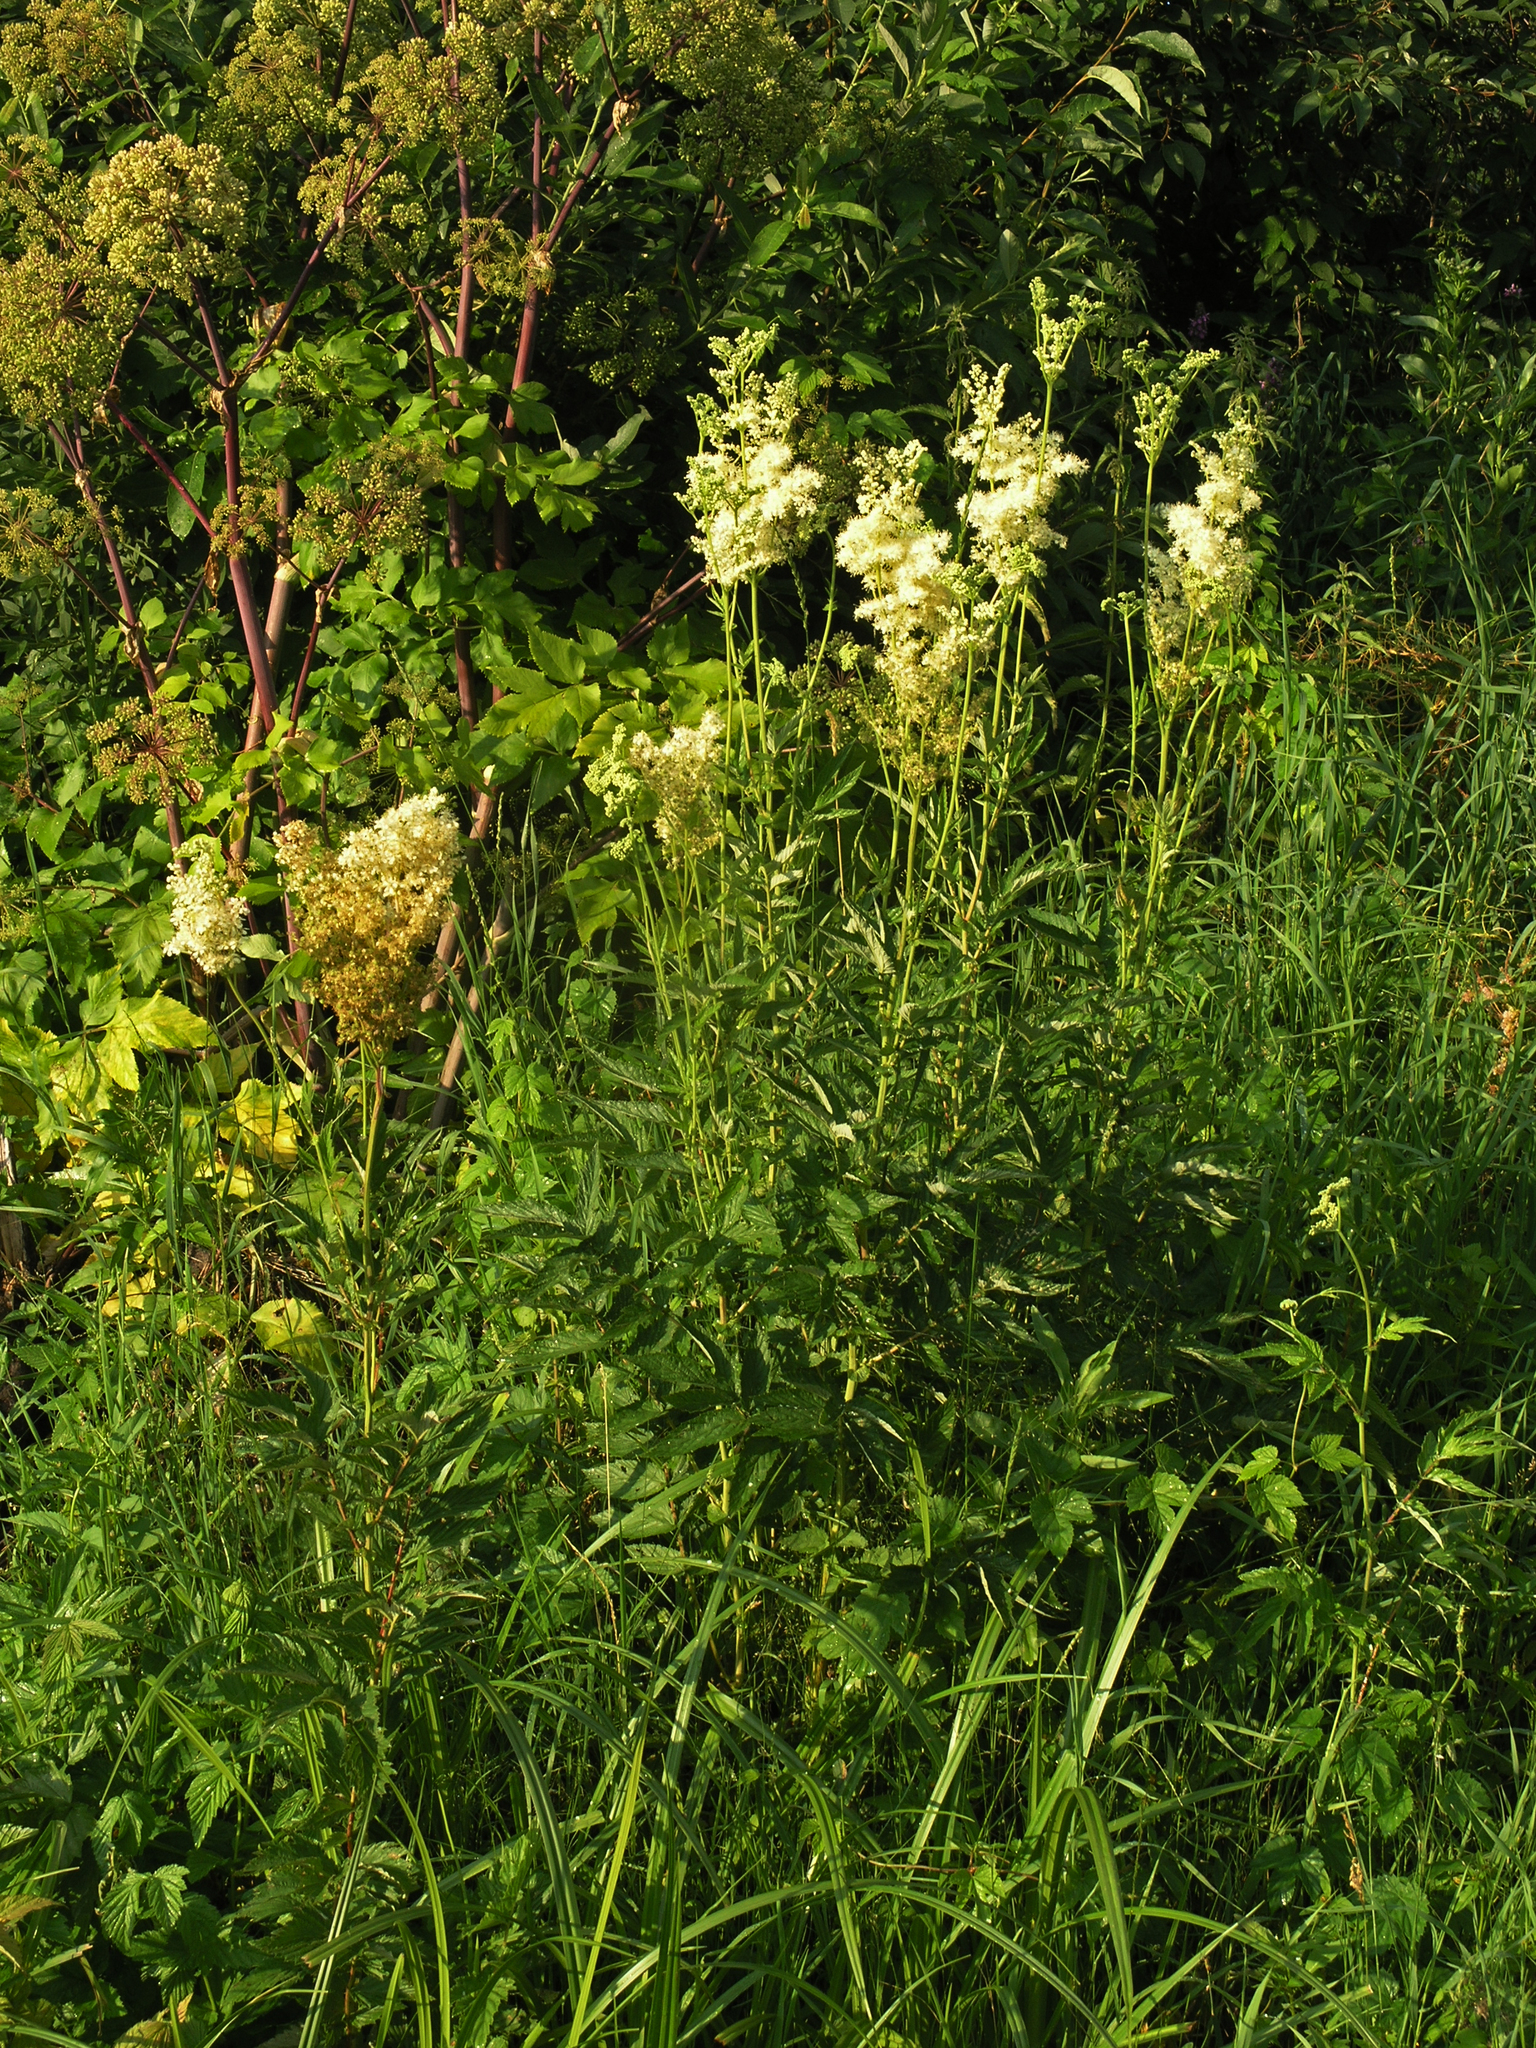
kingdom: Plantae
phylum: Tracheophyta
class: Magnoliopsida
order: Rosales
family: Rosaceae
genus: Filipendula
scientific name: Filipendula ulmaria
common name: Meadowsweet
